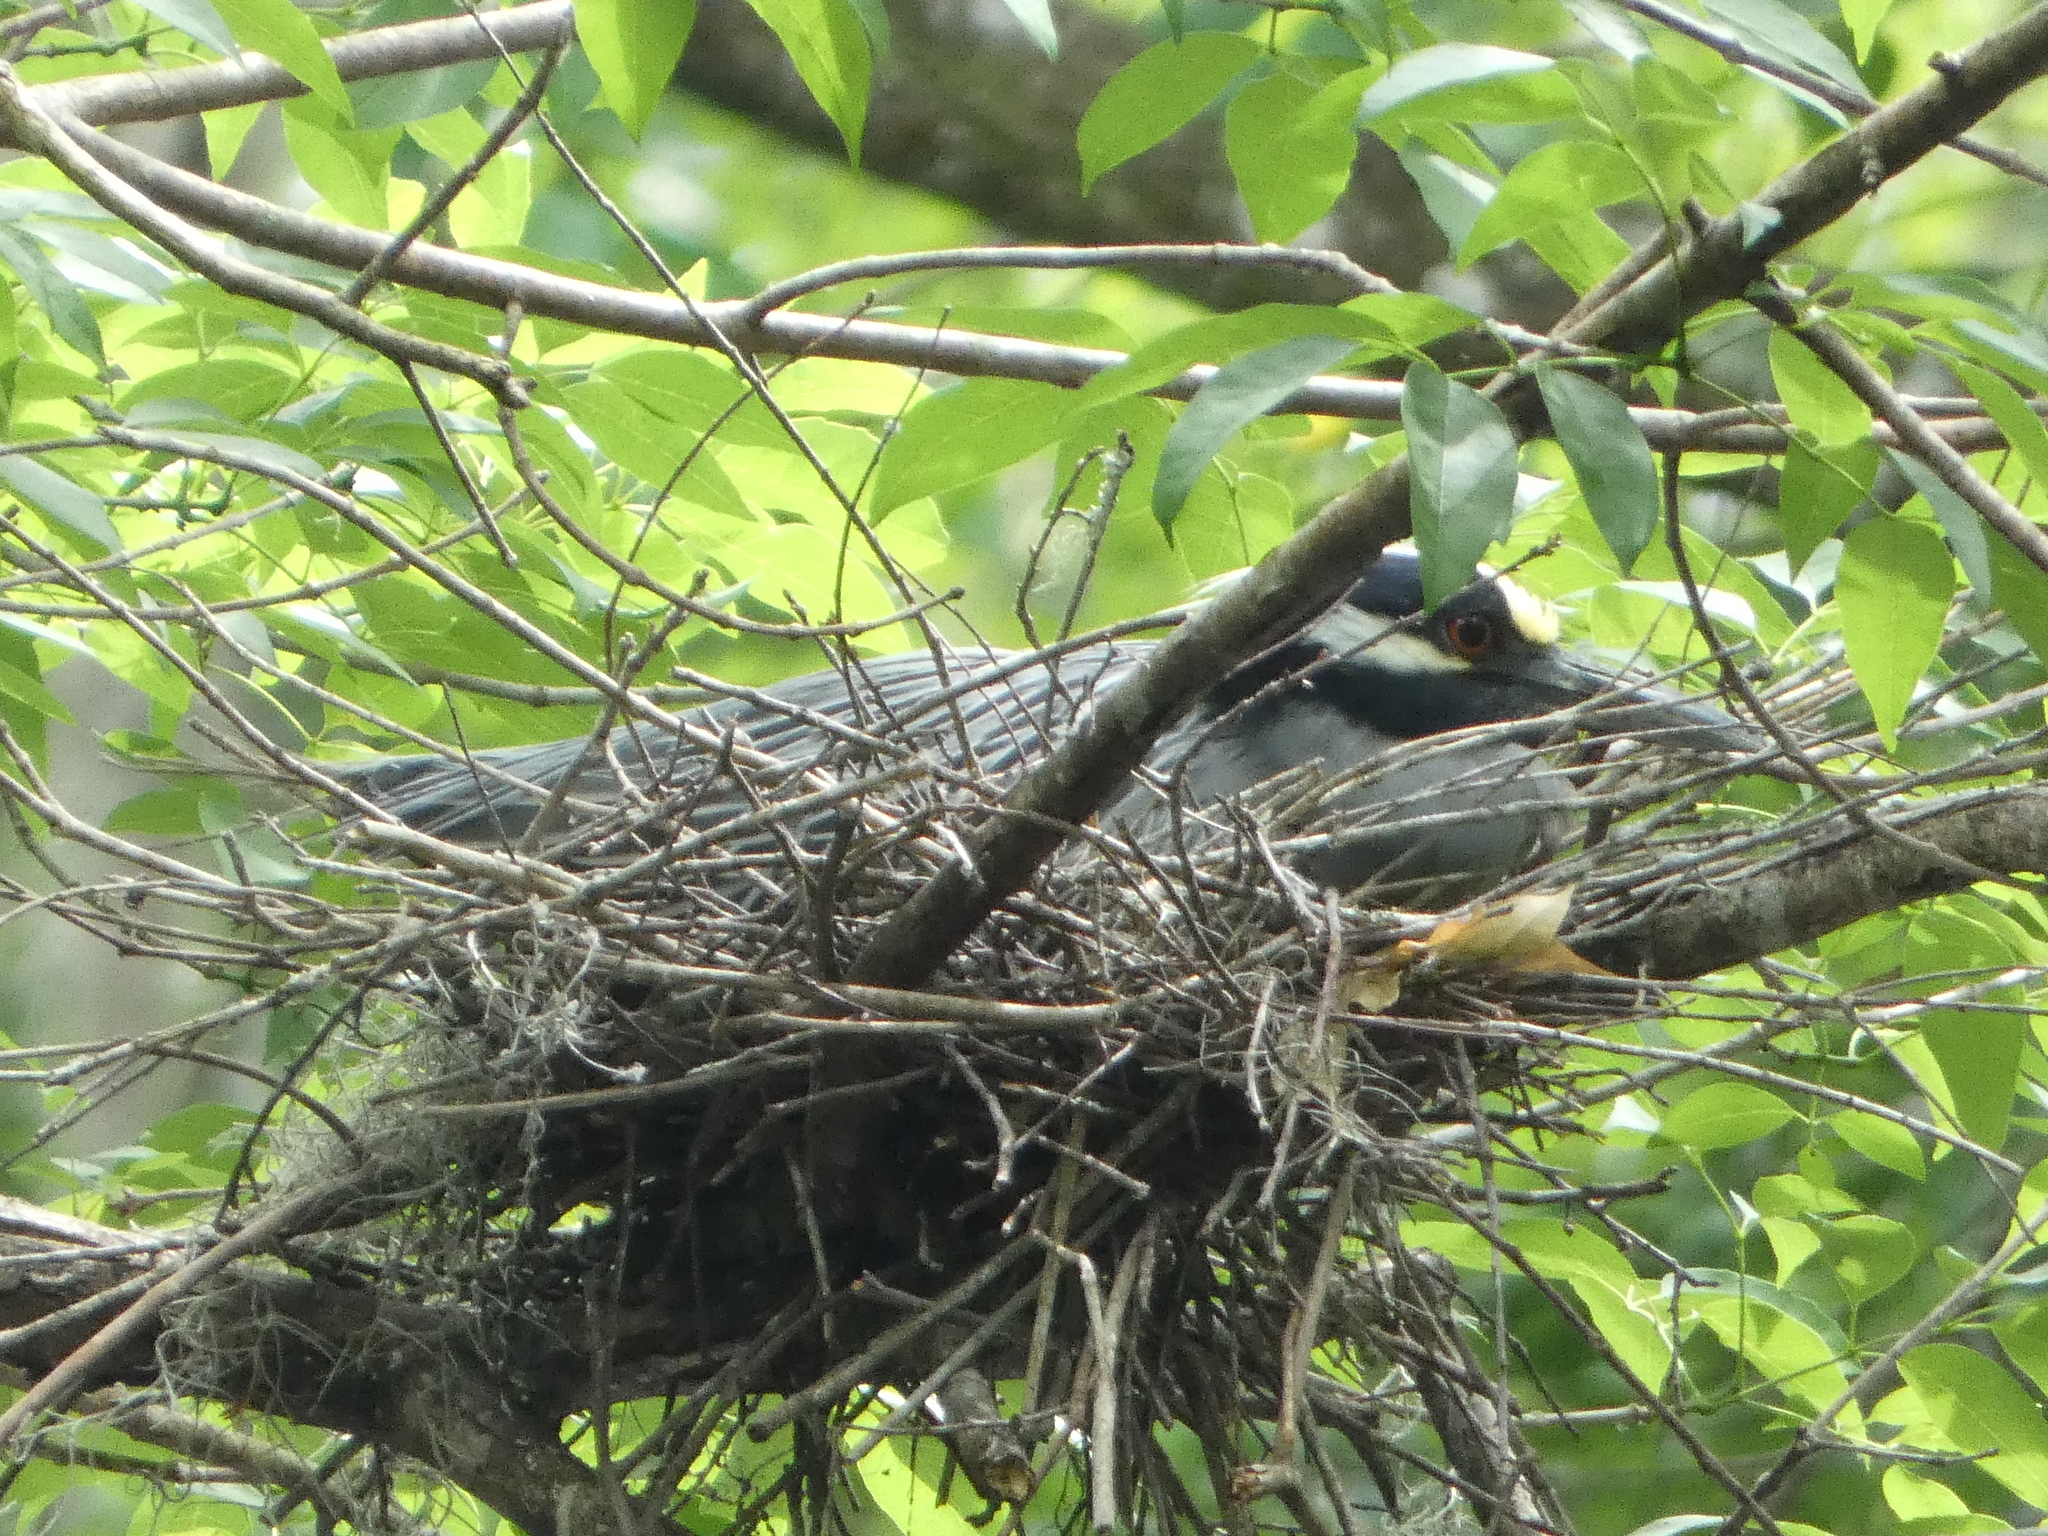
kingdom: Animalia
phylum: Chordata
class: Aves
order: Pelecaniformes
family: Ardeidae
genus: Nyctanassa
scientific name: Nyctanassa violacea
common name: Yellow-crowned night heron
